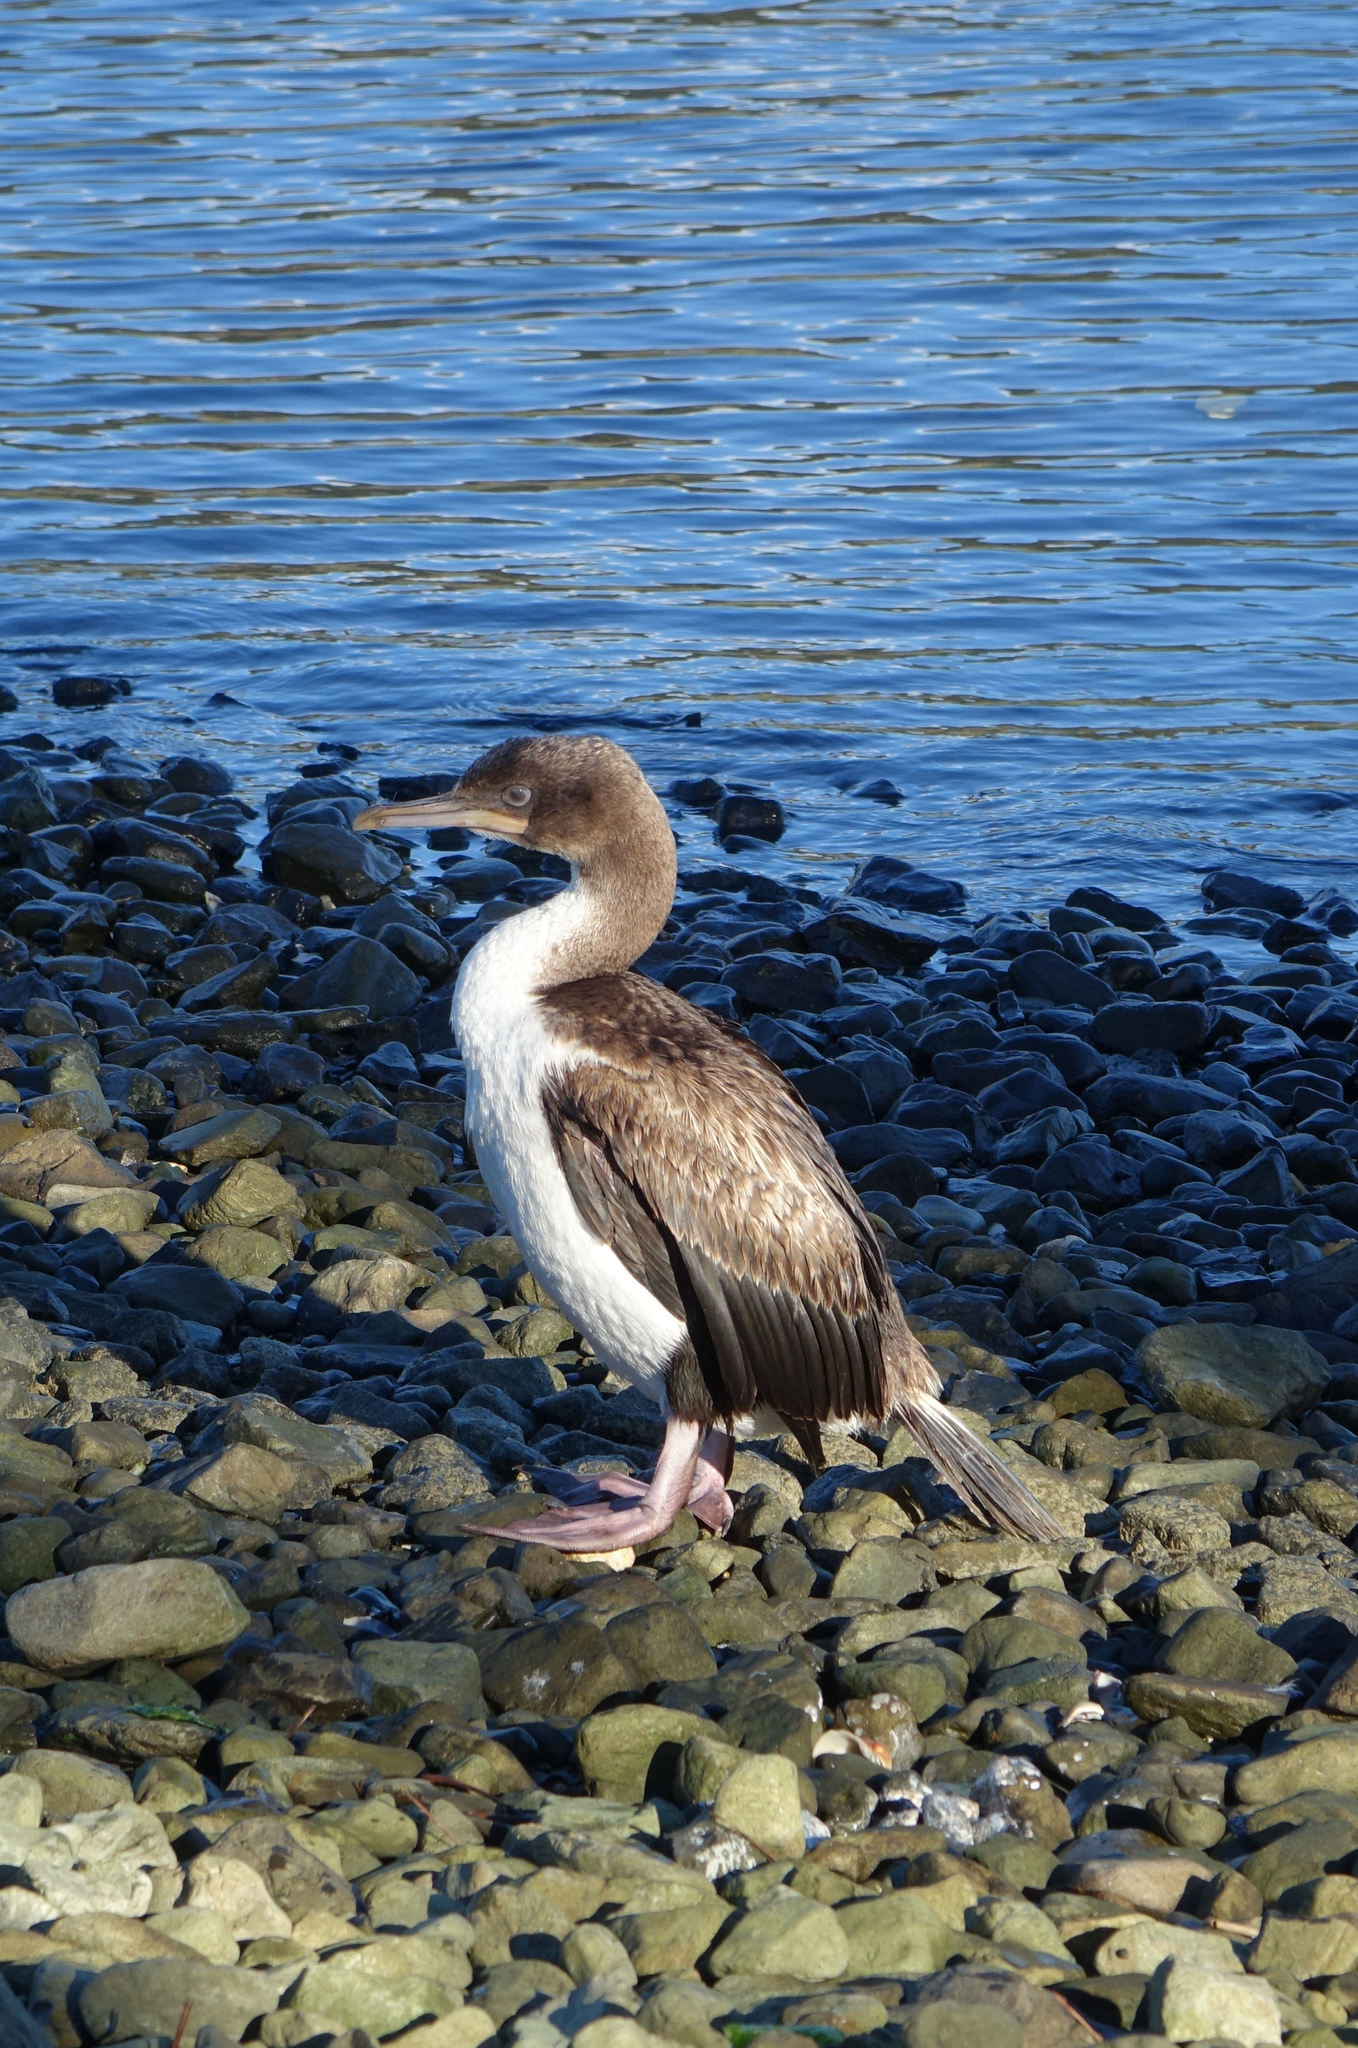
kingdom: Animalia
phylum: Chordata
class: Aves
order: Suliformes
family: Phalacrocoracidae
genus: Leucocarbo
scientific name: Leucocarbo chalconotus
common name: Stewart shag
